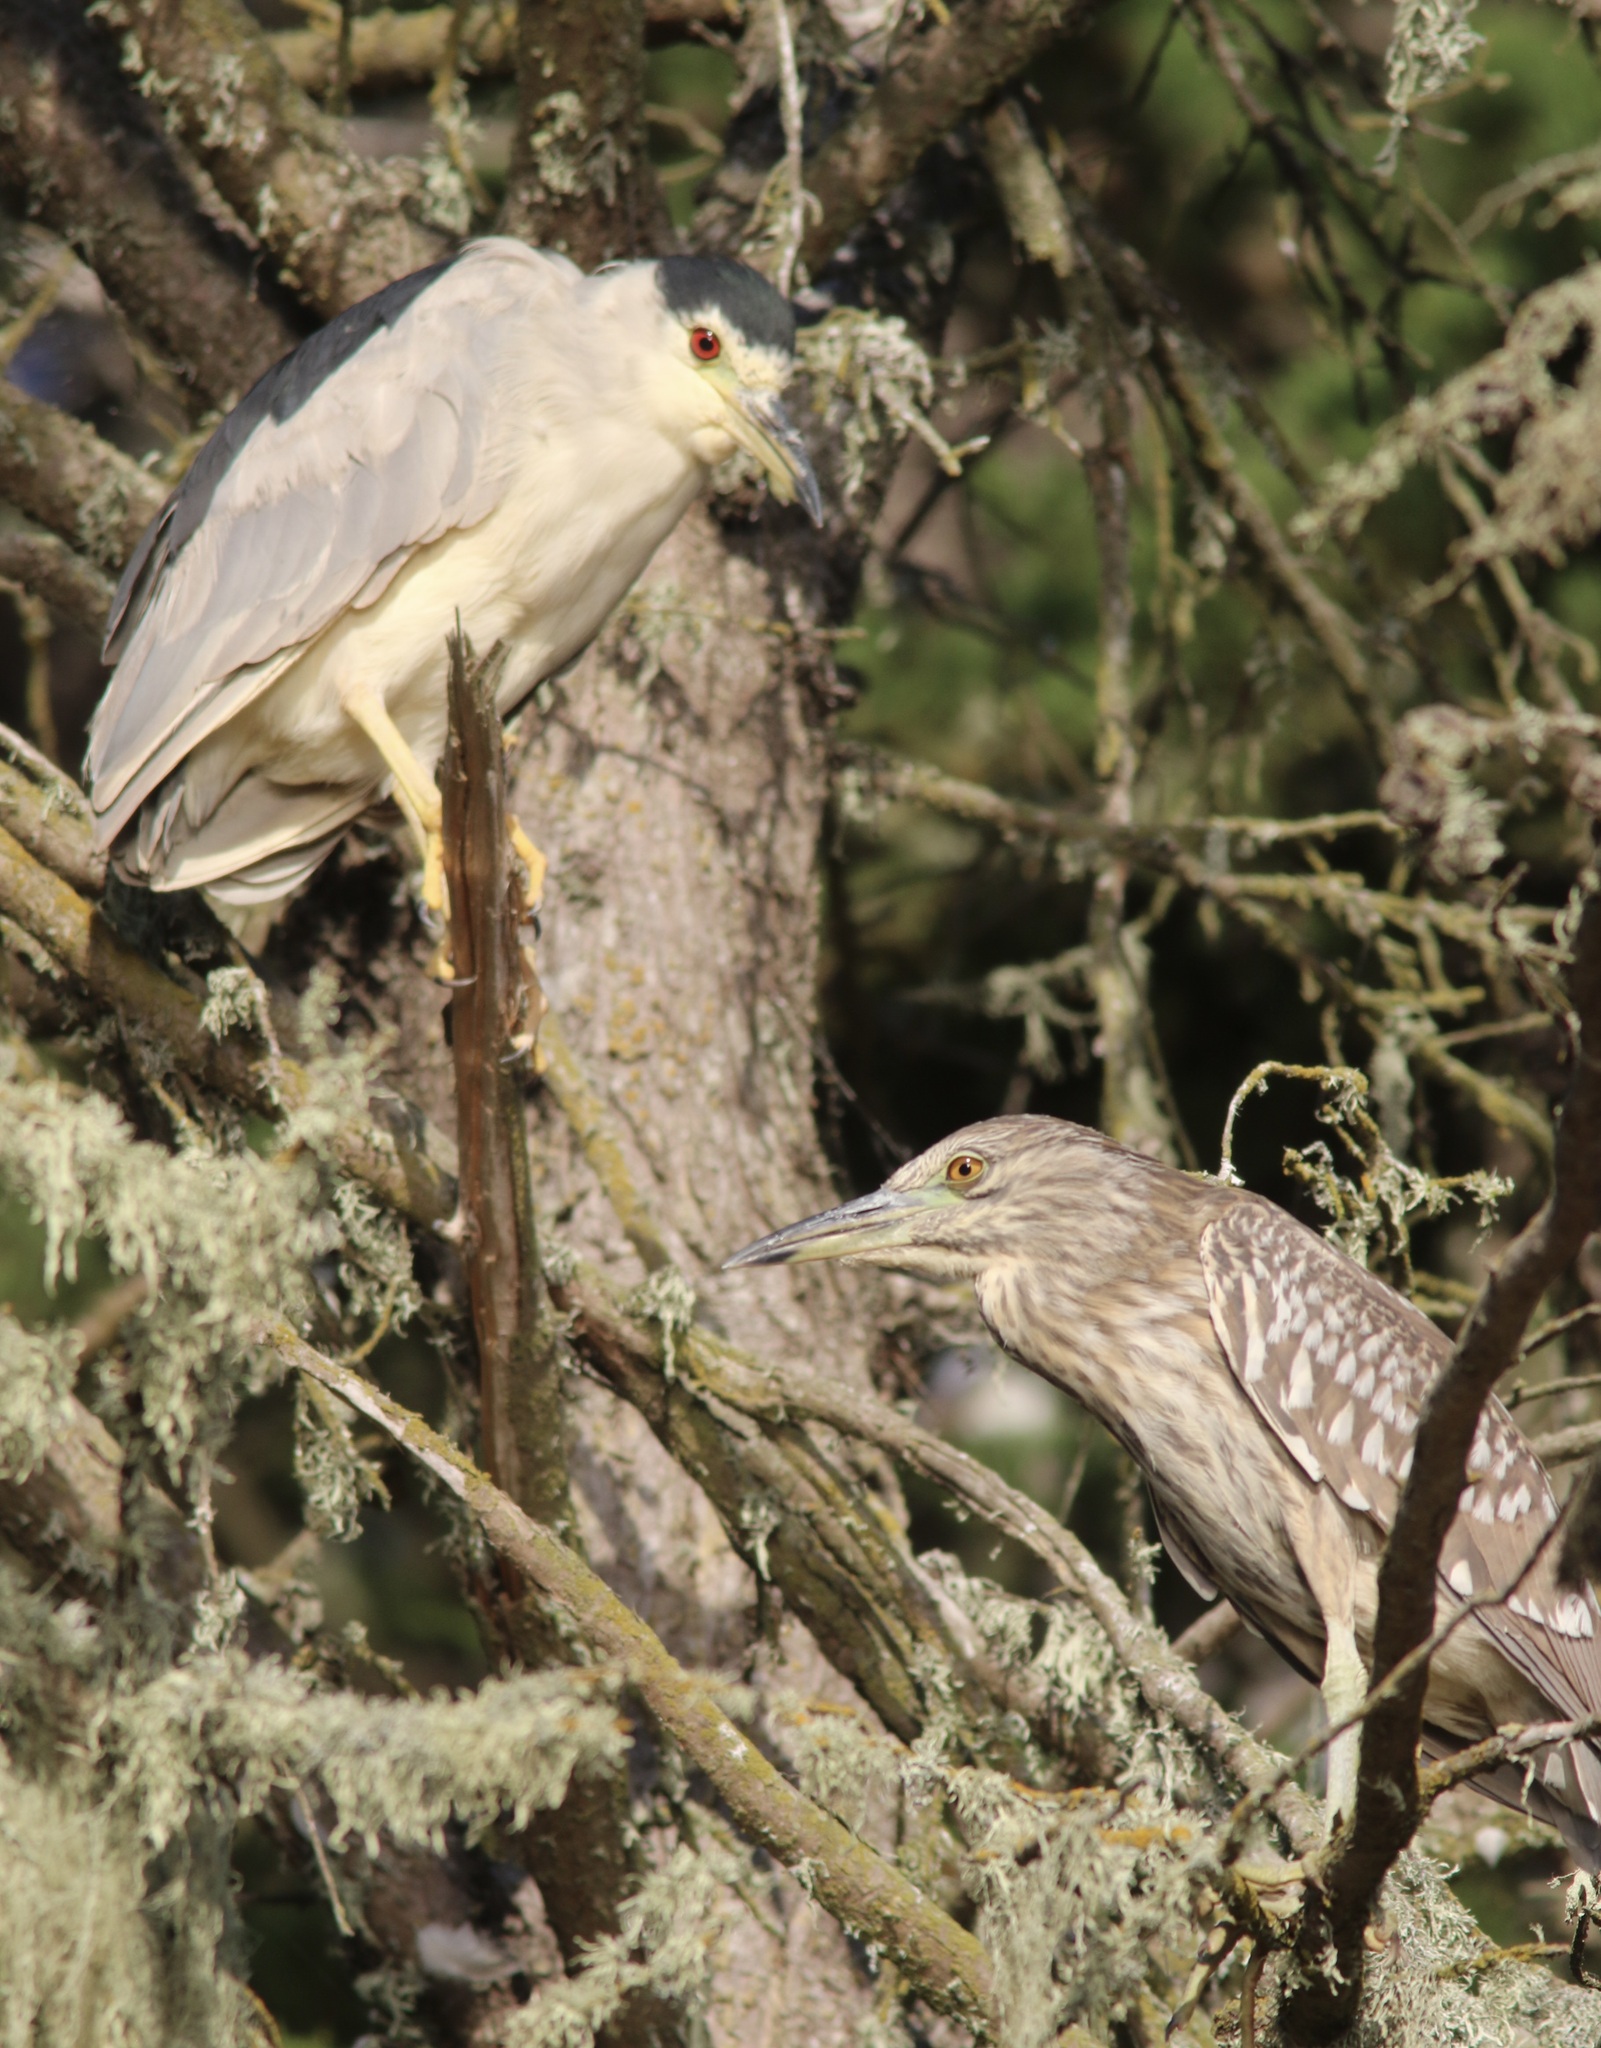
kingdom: Animalia
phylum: Chordata
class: Aves
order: Pelecaniformes
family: Ardeidae
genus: Nycticorax
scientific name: Nycticorax nycticorax
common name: Black-crowned night heron
